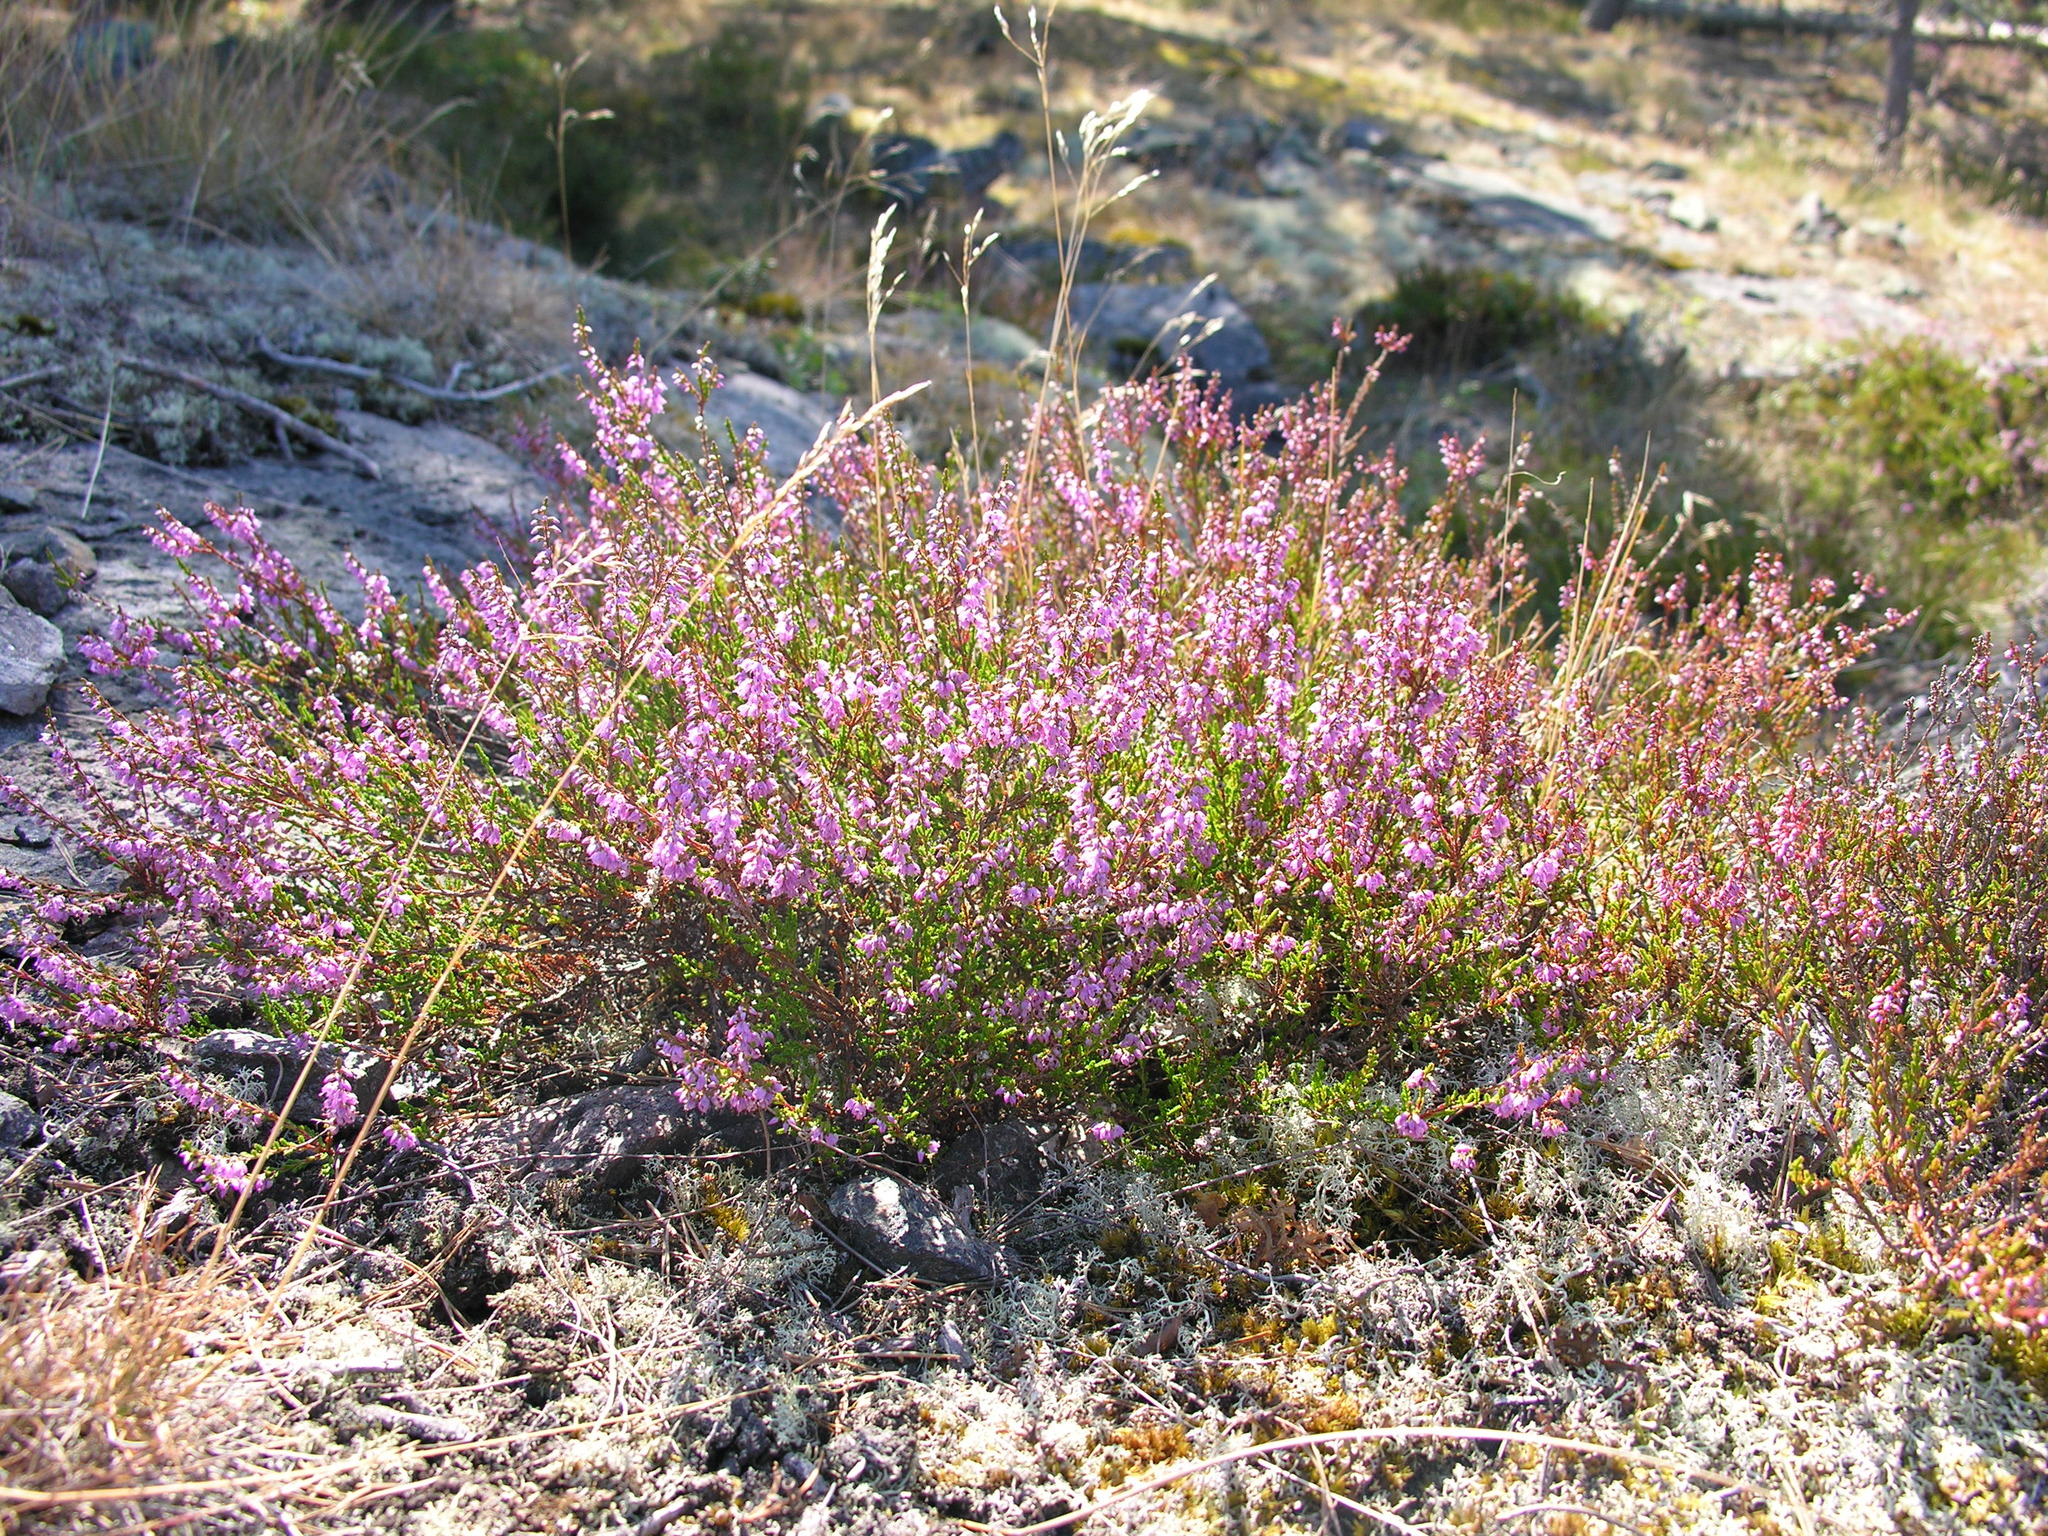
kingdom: Plantae
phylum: Tracheophyta
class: Magnoliopsida
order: Ericales
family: Ericaceae
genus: Calluna
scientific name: Calluna vulgaris
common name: Heather
